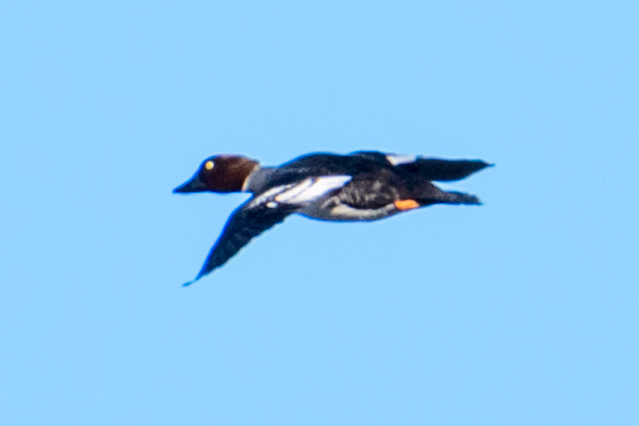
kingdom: Animalia
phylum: Chordata
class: Aves
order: Anseriformes
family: Anatidae
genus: Bucephala
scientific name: Bucephala clangula
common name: Common goldeneye
